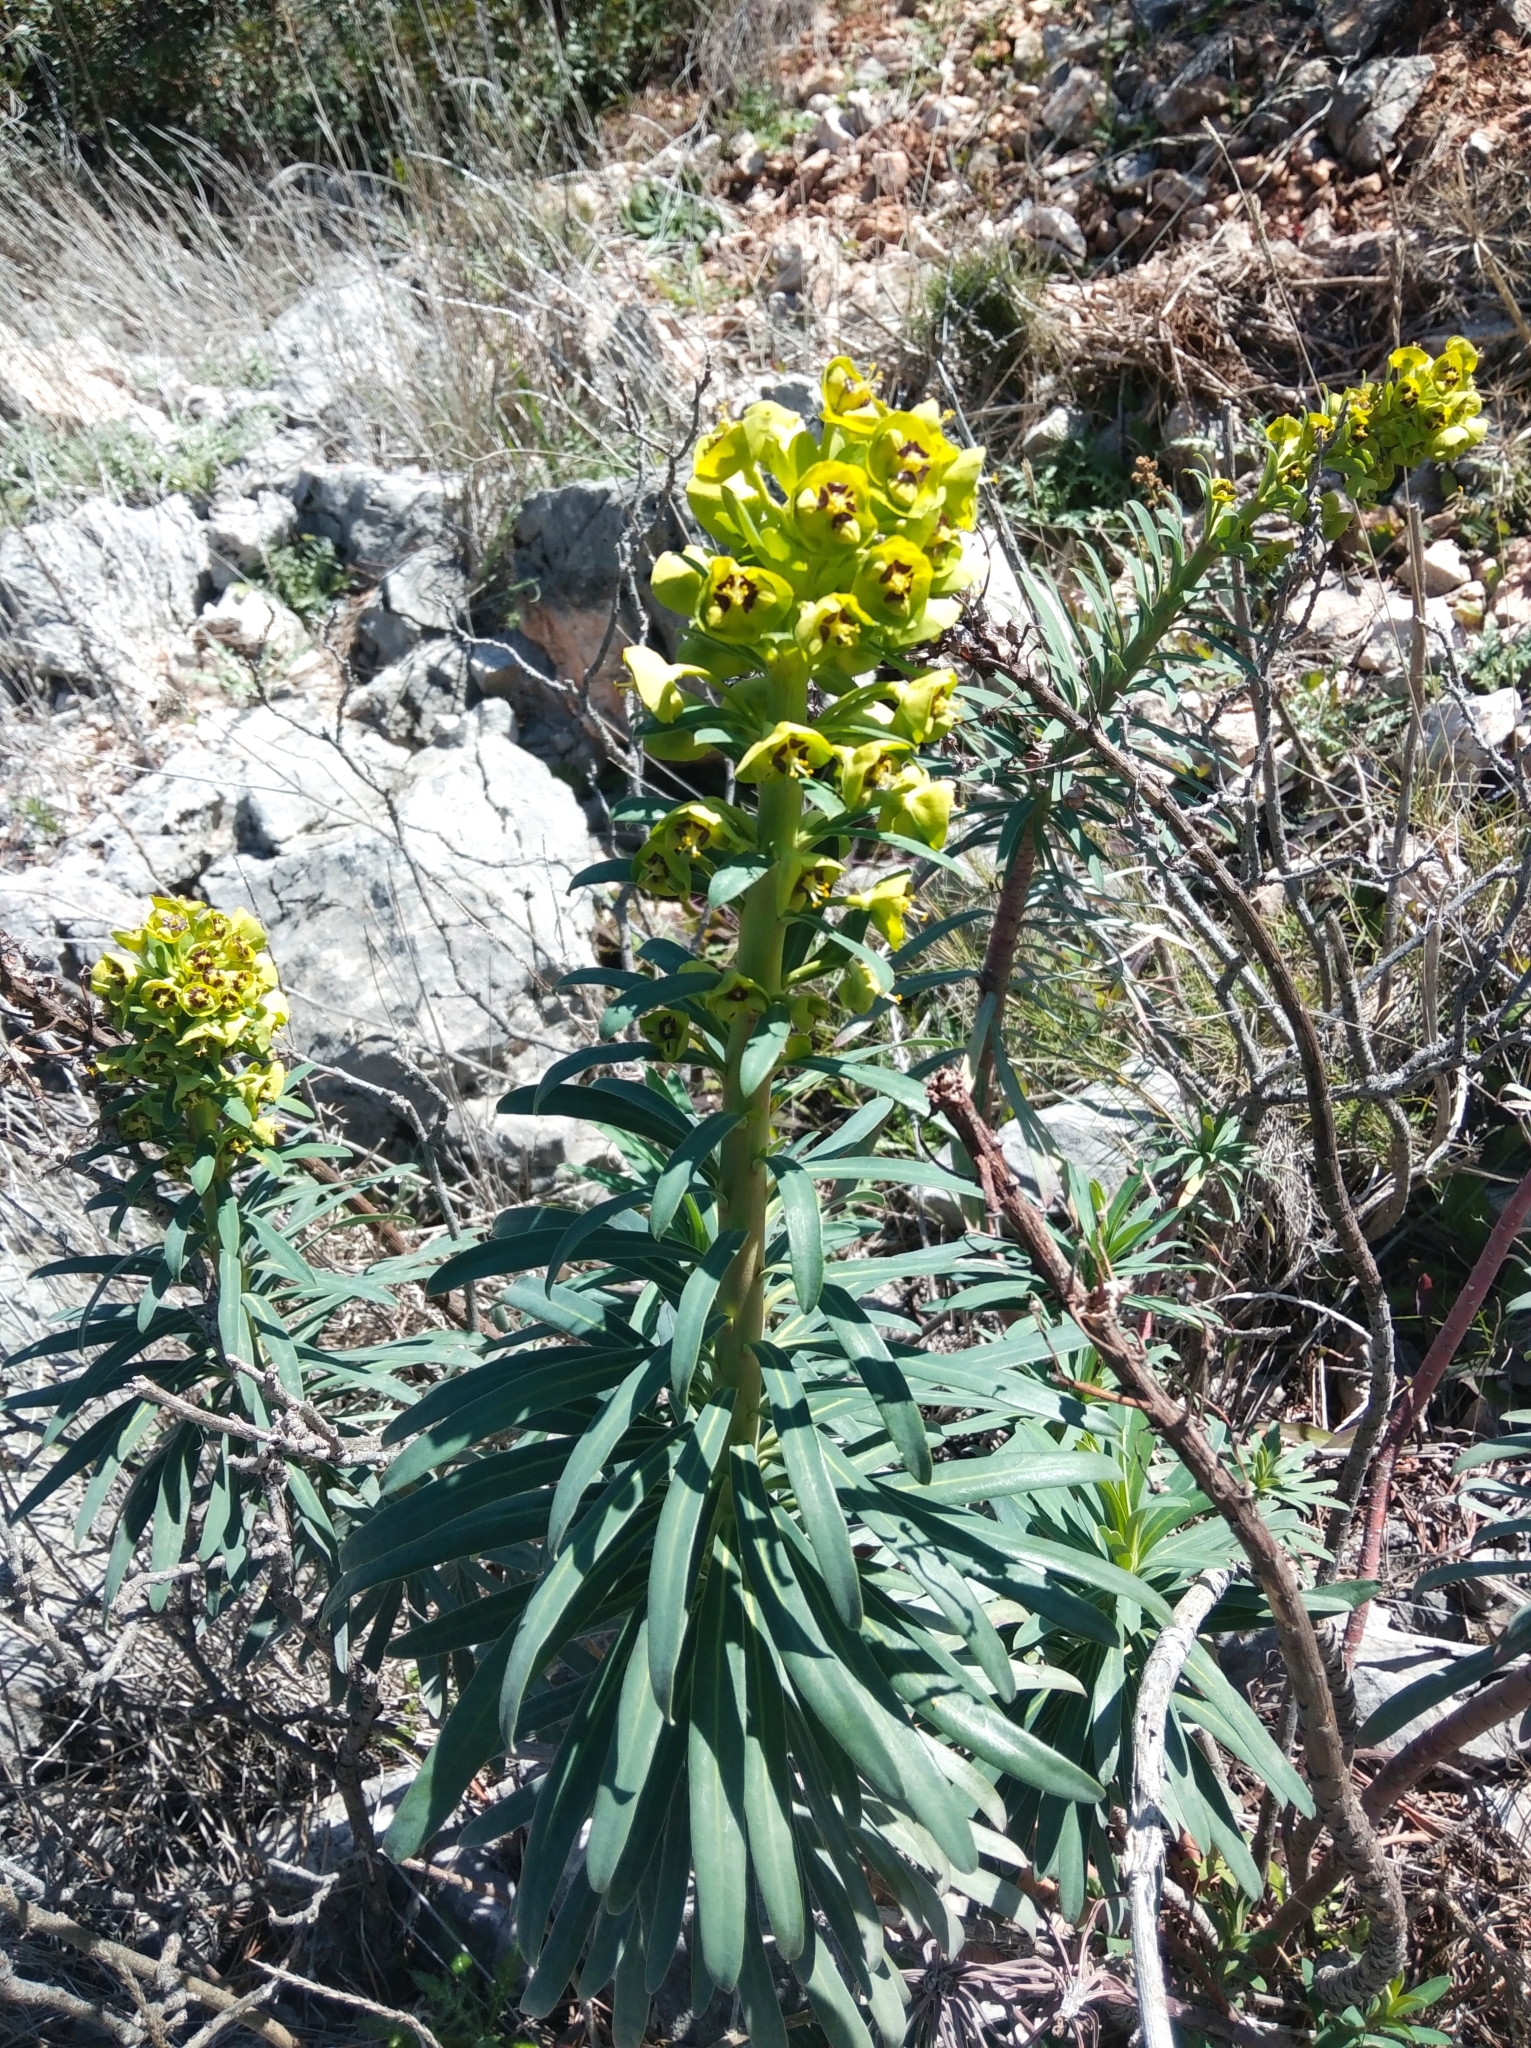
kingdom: Plantae
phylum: Tracheophyta
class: Magnoliopsida
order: Malpighiales
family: Euphorbiaceae
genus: Euphorbia
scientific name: Euphorbia characias
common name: Mediterranean spurge
